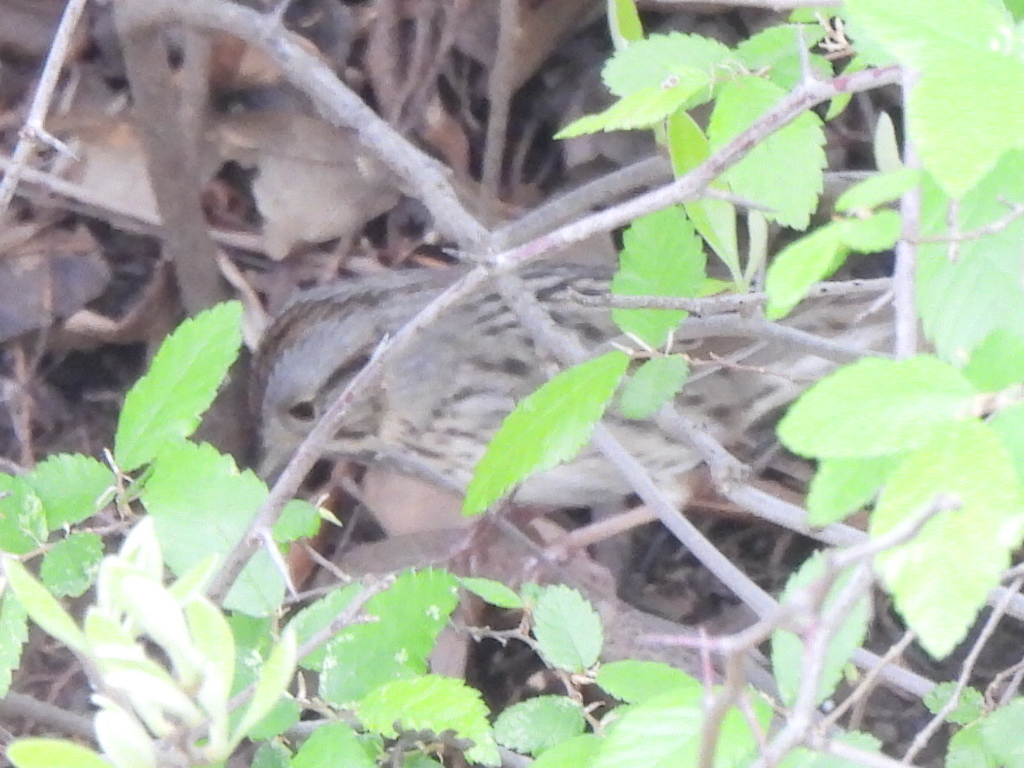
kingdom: Animalia
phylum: Chordata
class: Aves
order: Passeriformes
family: Passerellidae
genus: Melospiza
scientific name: Melospiza lincolnii
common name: Lincoln's sparrow
